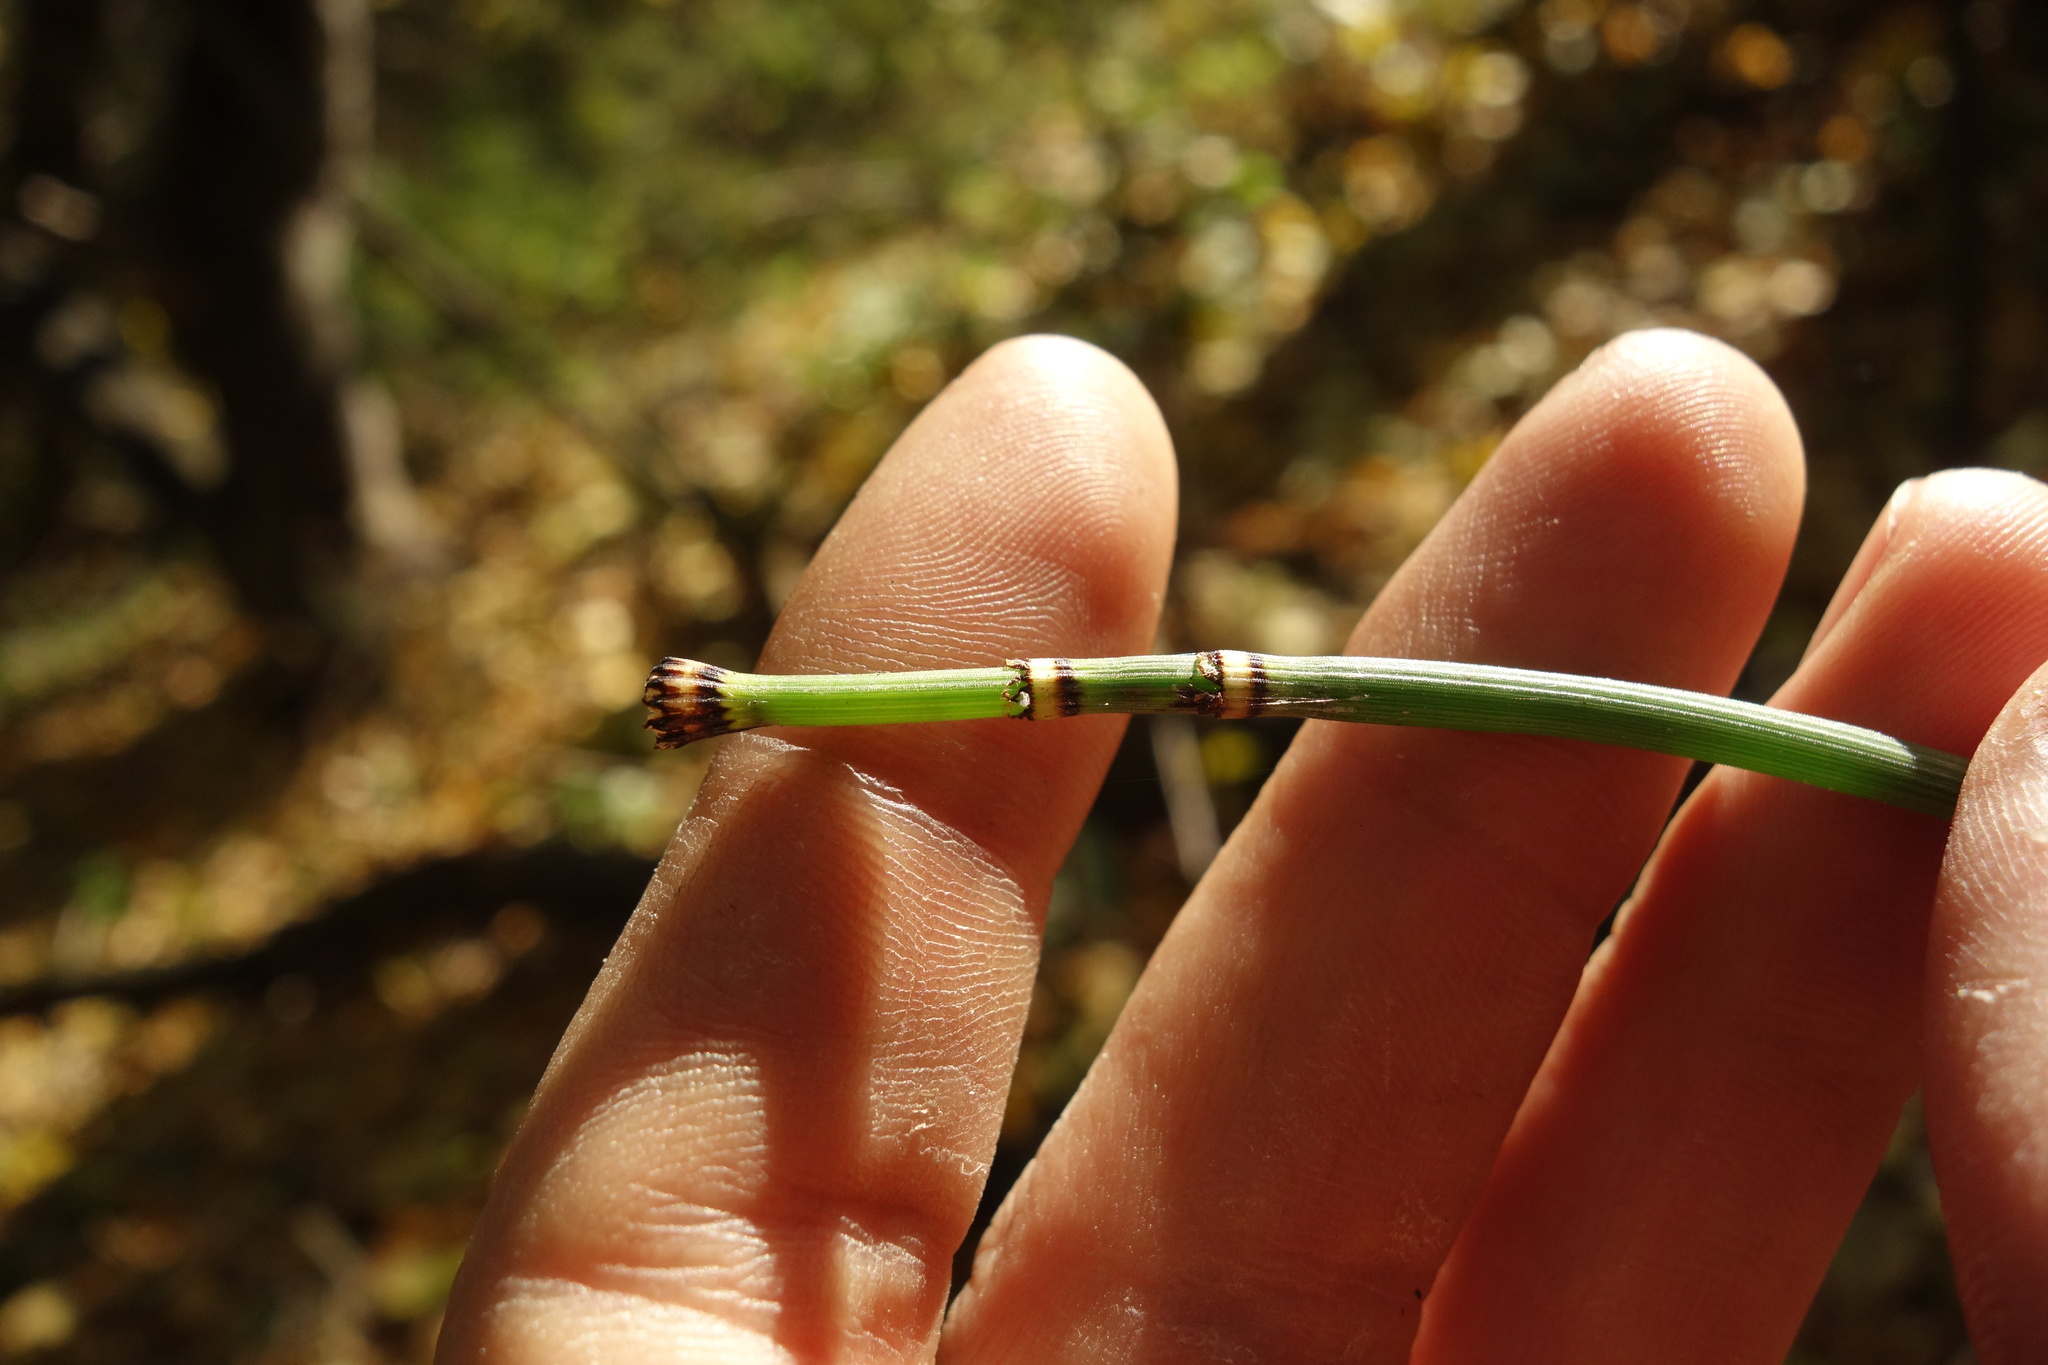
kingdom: Plantae
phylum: Tracheophyta
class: Polypodiopsida
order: Equisetales
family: Equisetaceae
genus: Equisetum
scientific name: Equisetum hyemale
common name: Rough horsetail
